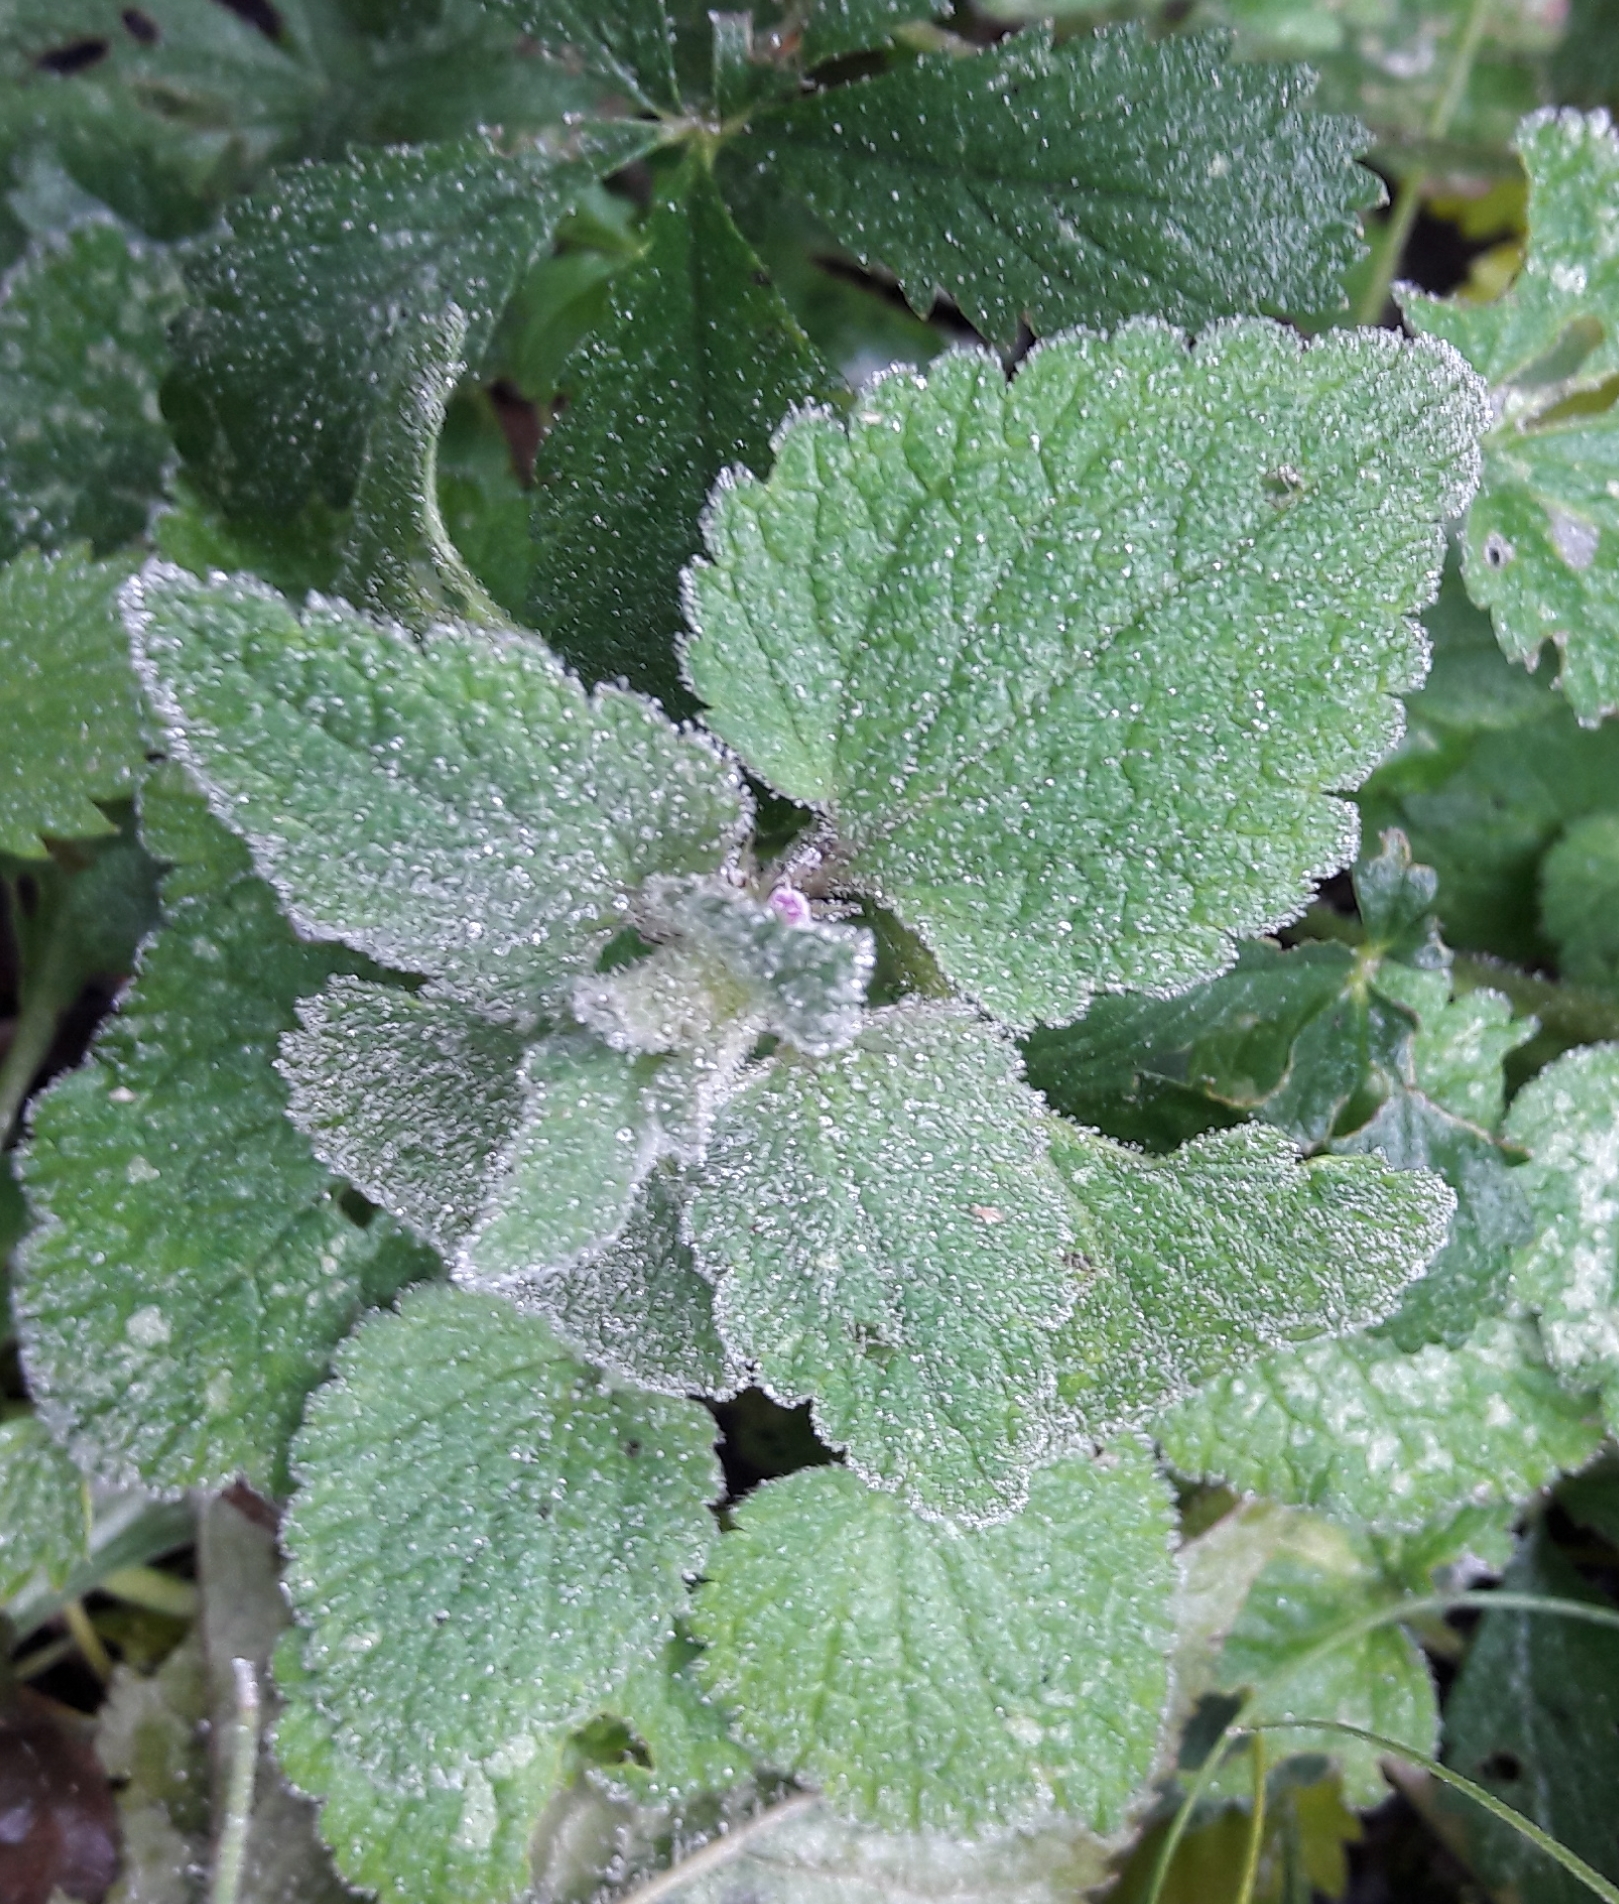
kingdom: Plantae
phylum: Tracheophyta
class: Magnoliopsida
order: Lamiales
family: Lamiaceae
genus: Lamium
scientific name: Lamium purpureum
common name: Red dead-nettle
